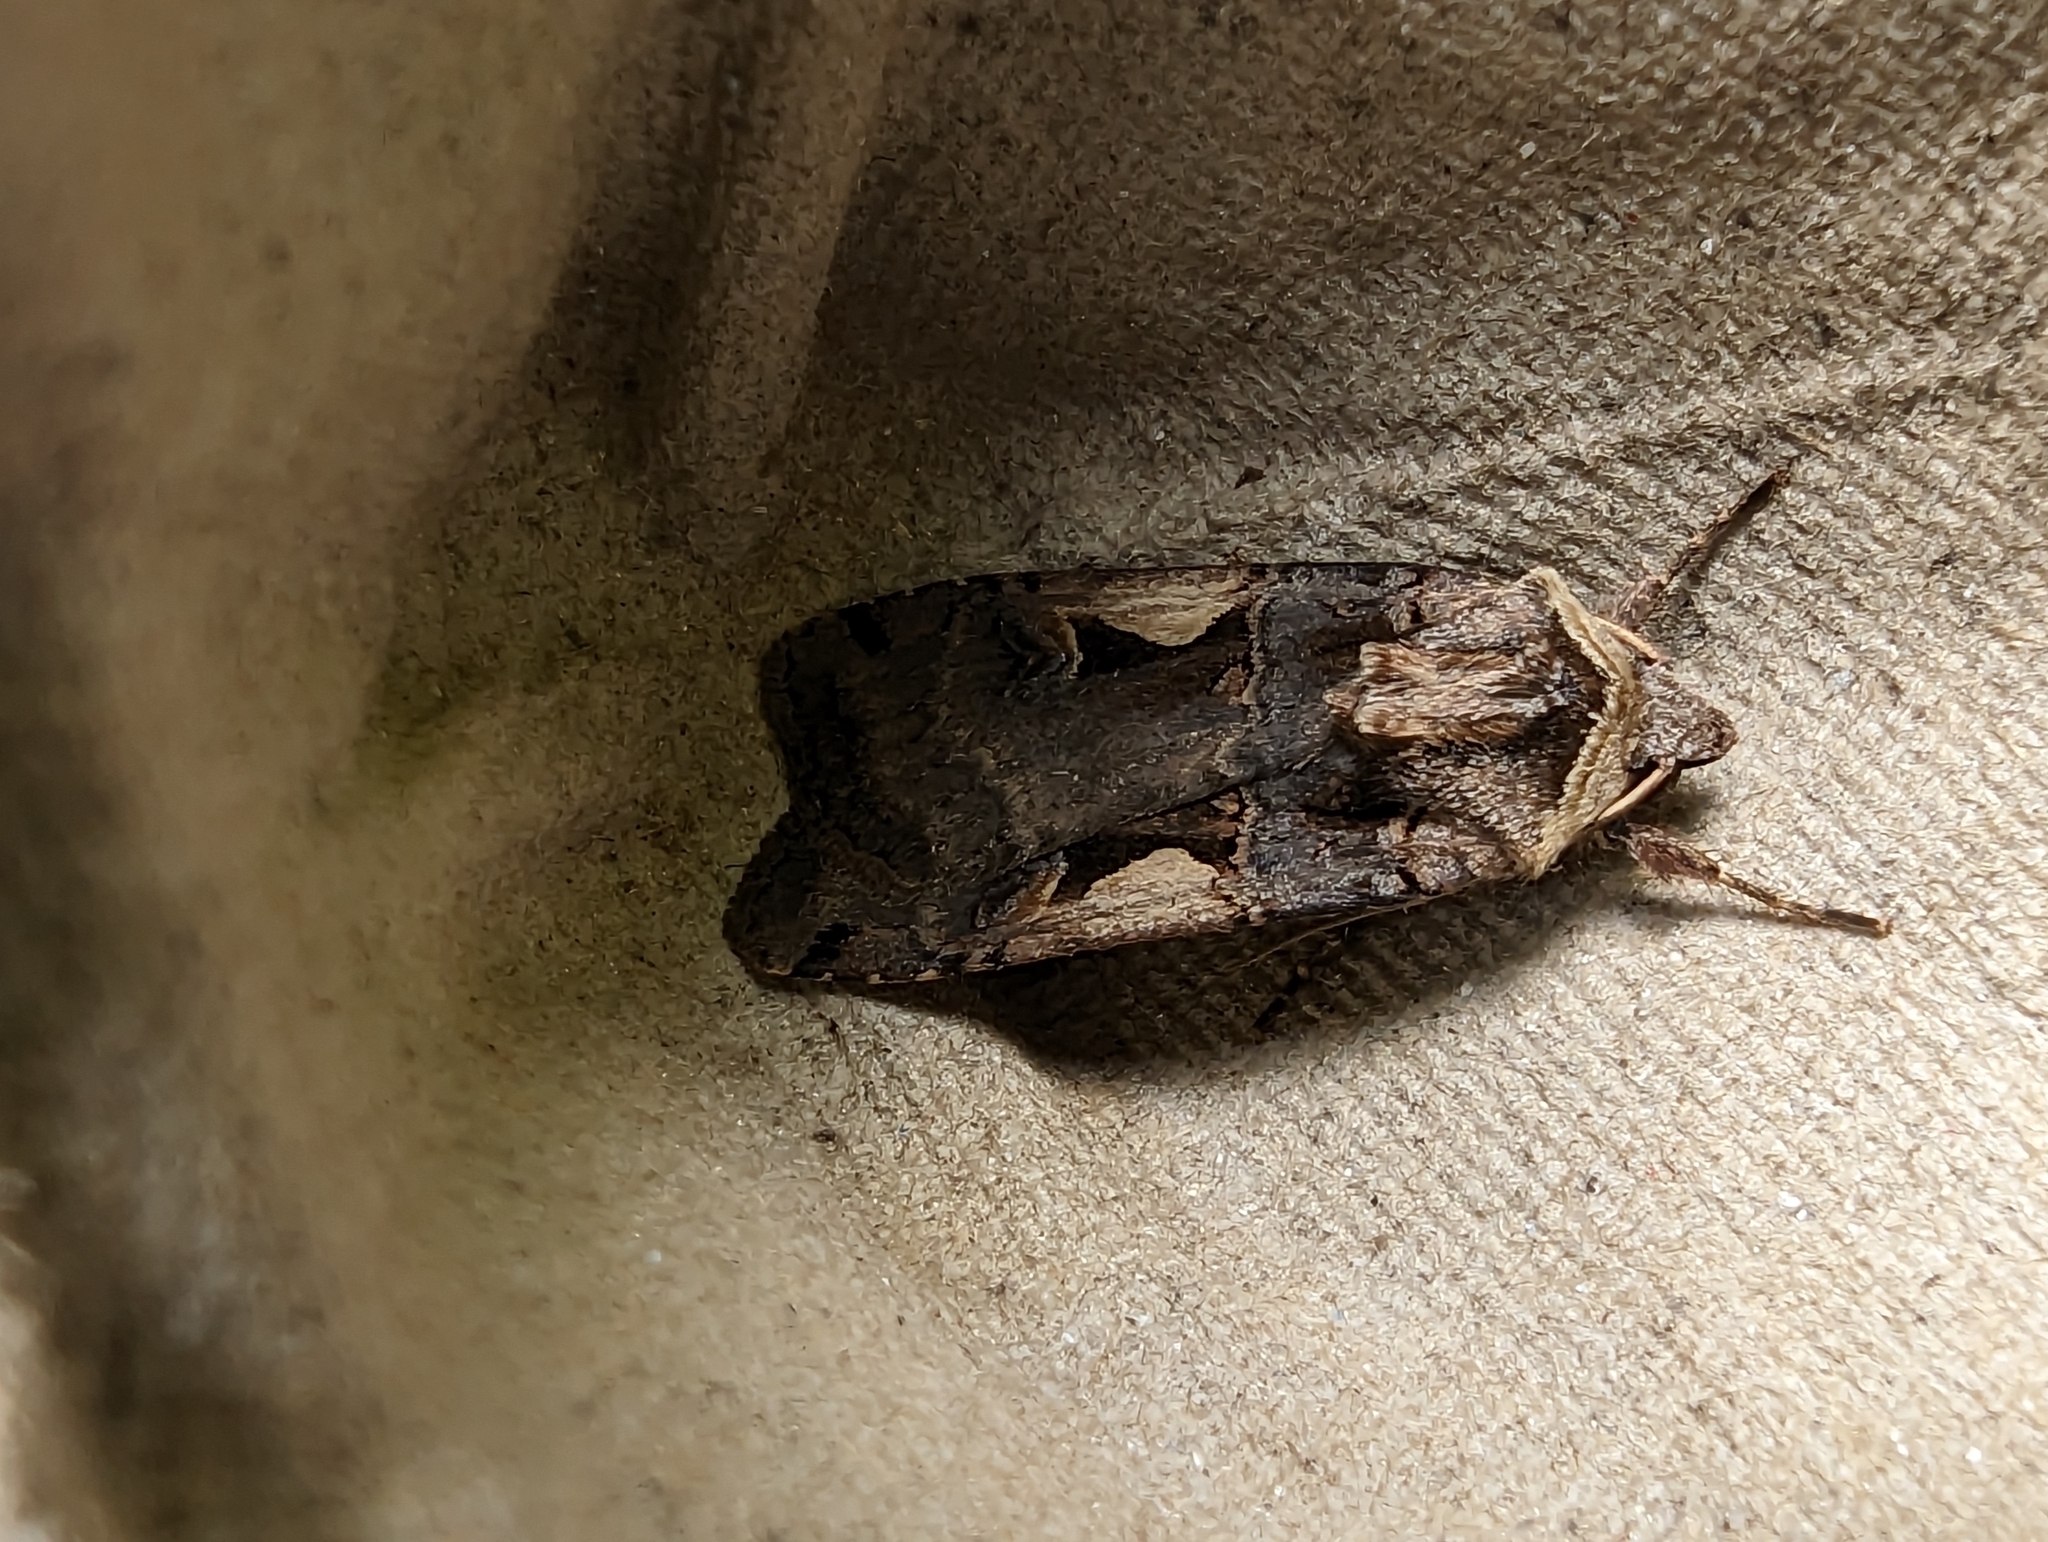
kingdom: Animalia
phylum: Arthropoda
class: Insecta
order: Lepidoptera
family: Noctuidae
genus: Xestia
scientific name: Xestia c-nigrum
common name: Setaceous hebrew character
